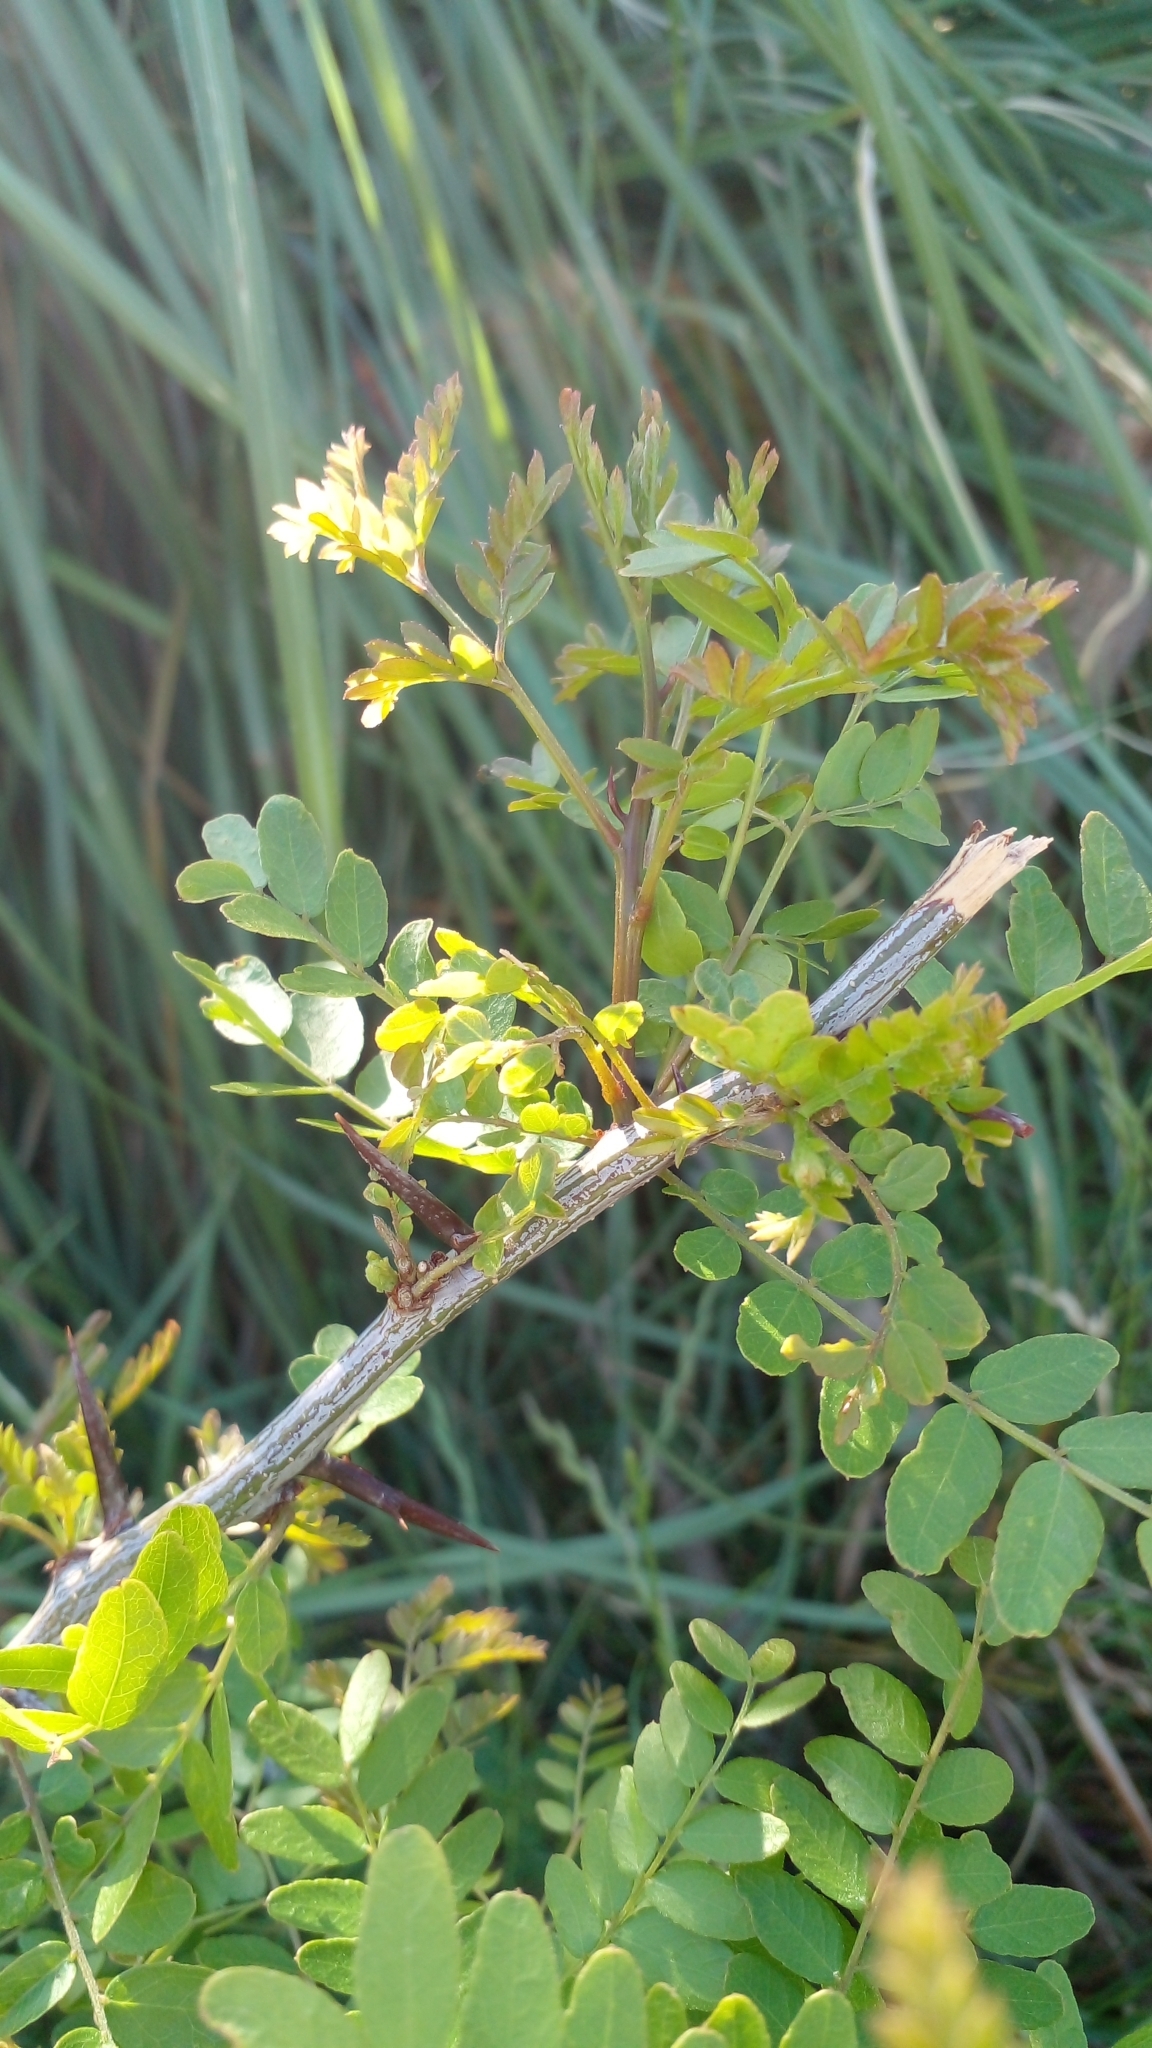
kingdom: Plantae
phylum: Tracheophyta
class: Magnoliopsida
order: Fabales
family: Fabaceae
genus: Gleditsia
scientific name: Gleditsia triacanthos
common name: Common honeylocust
